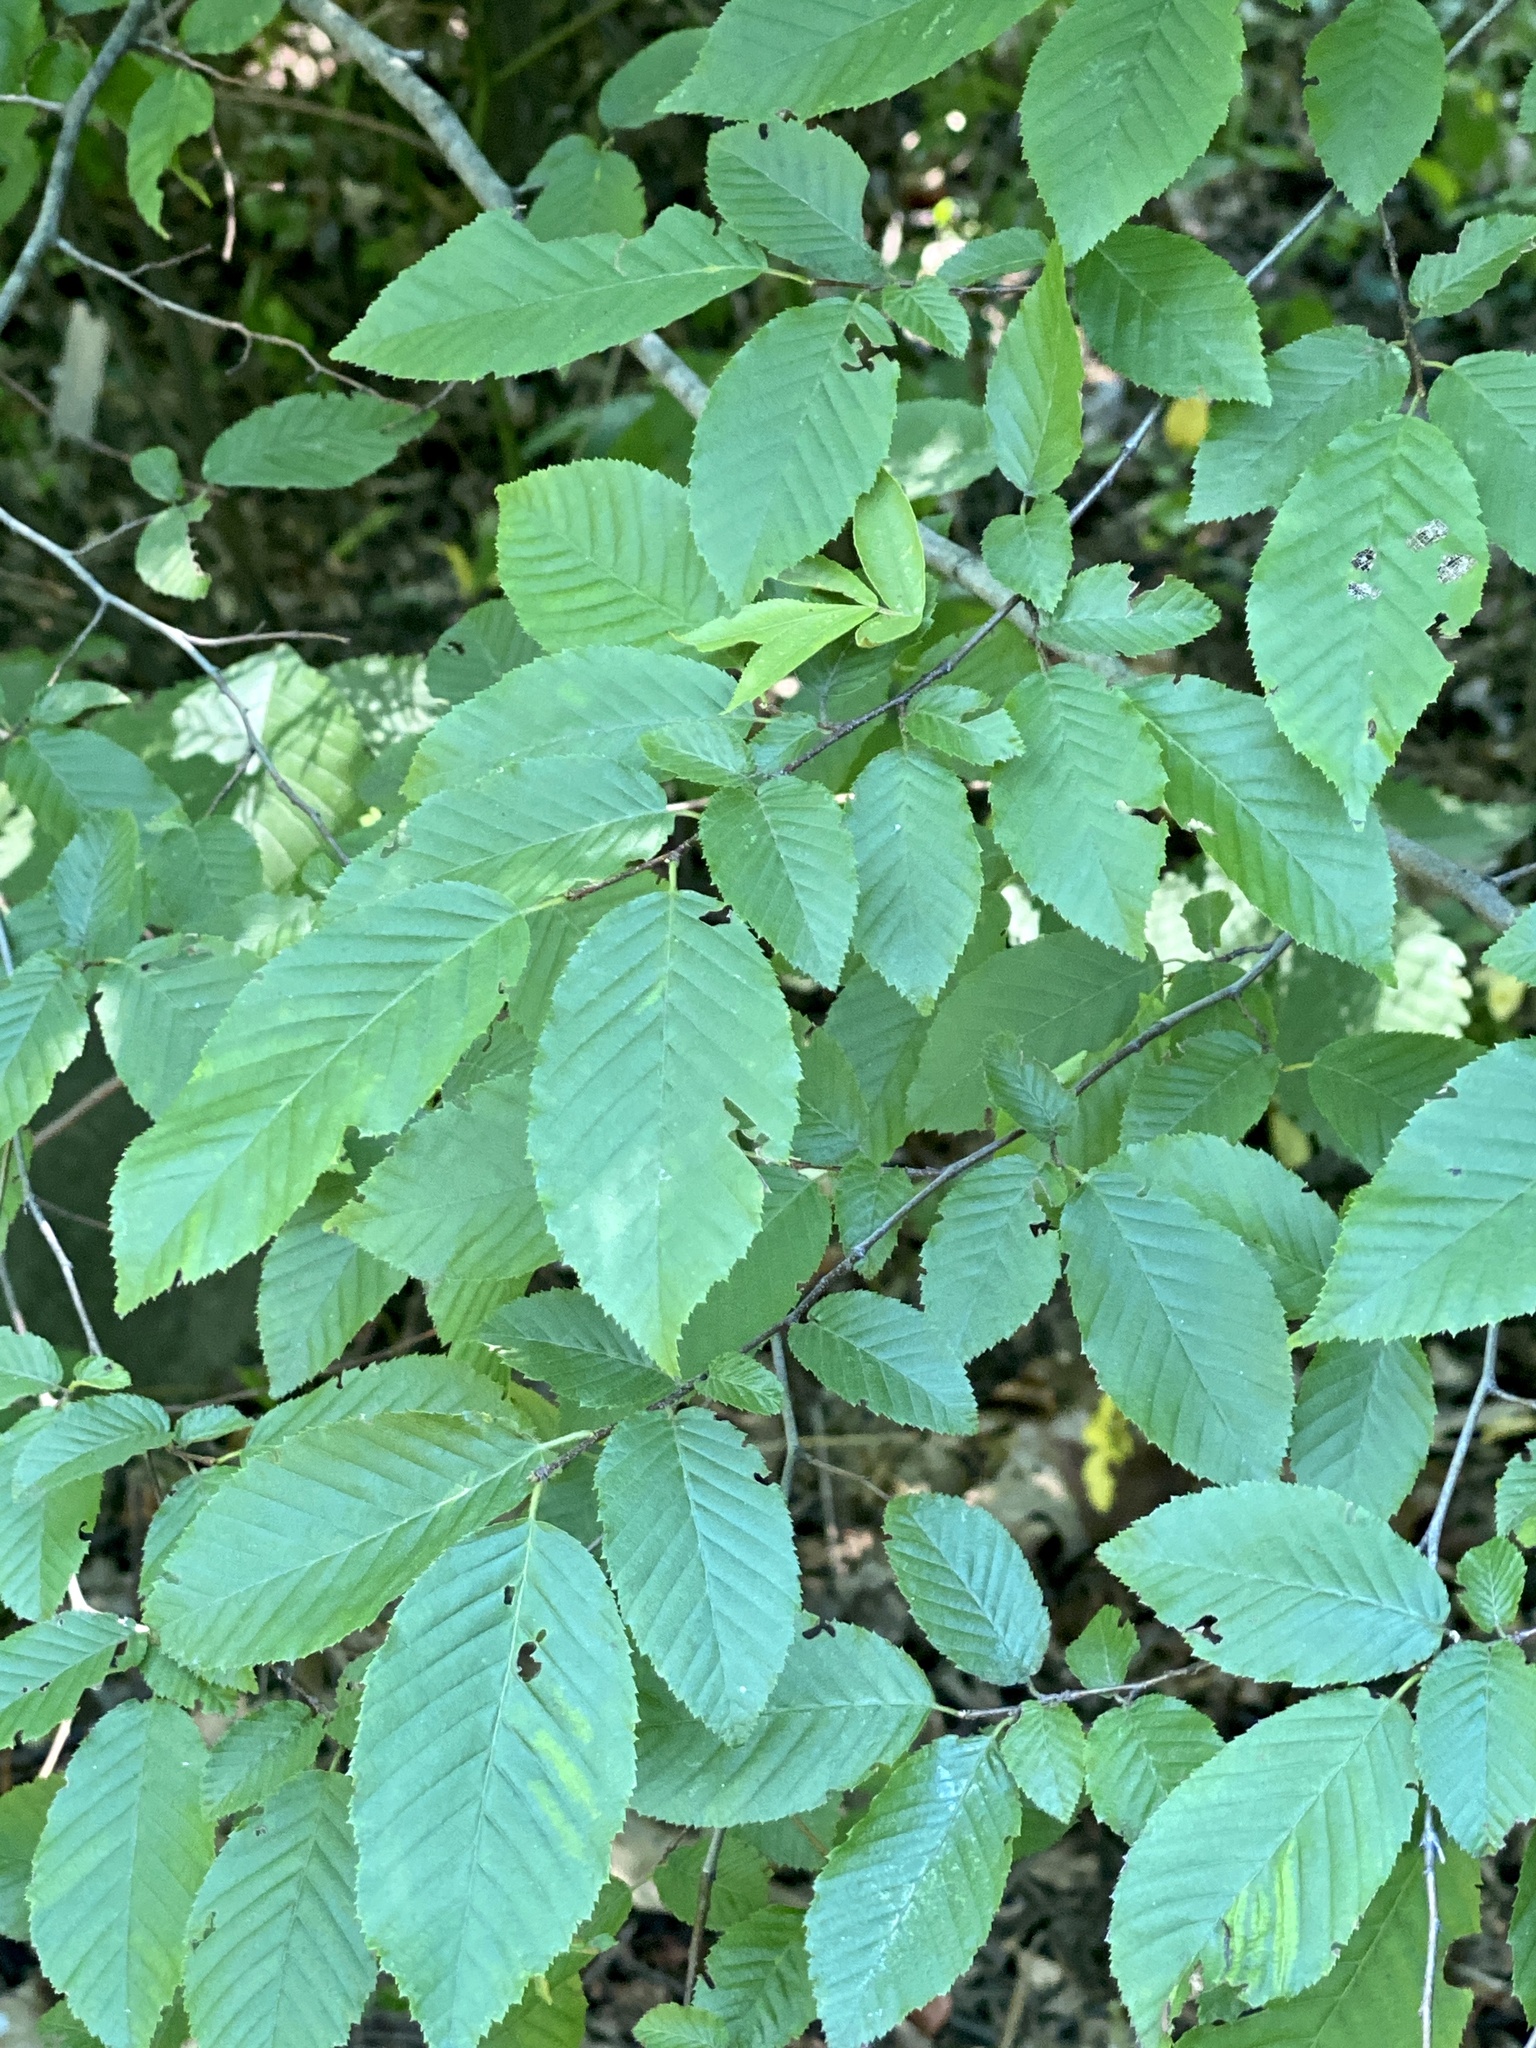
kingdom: Plantae
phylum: Tracheophyta
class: Magnoliopsida
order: Fagales
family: Betulaceae
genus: Carpinus
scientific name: Carpinus caroliniana
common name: American hornbeam
